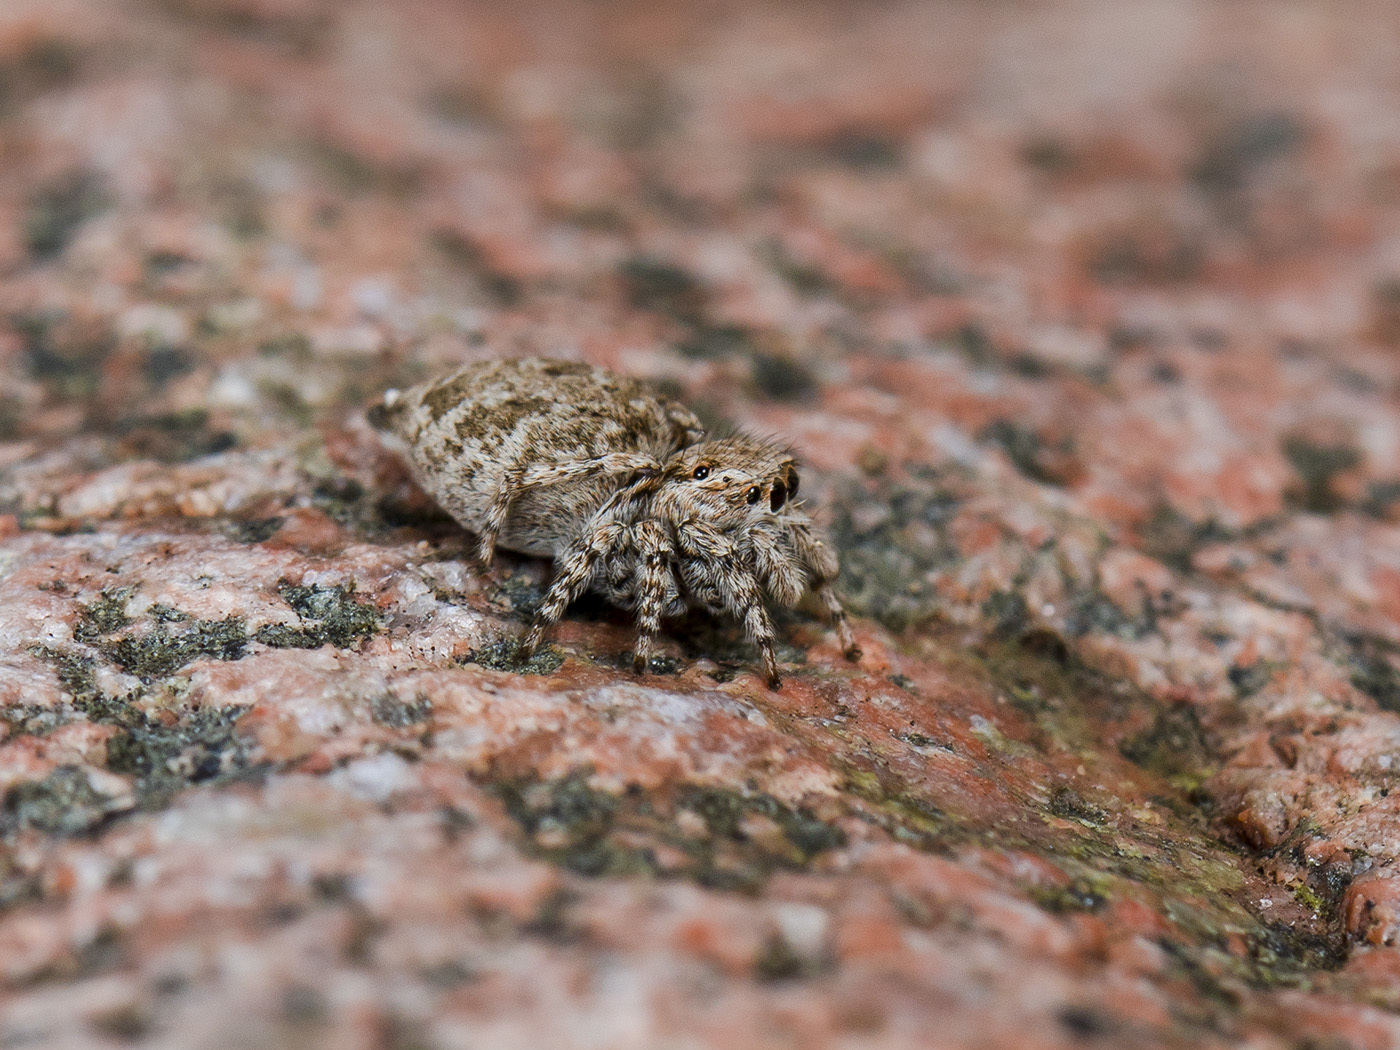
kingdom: Animalia
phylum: Arthropoda
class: Arachnida
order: Araneae
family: Salticidae
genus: Attulus
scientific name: Attulus avocator
